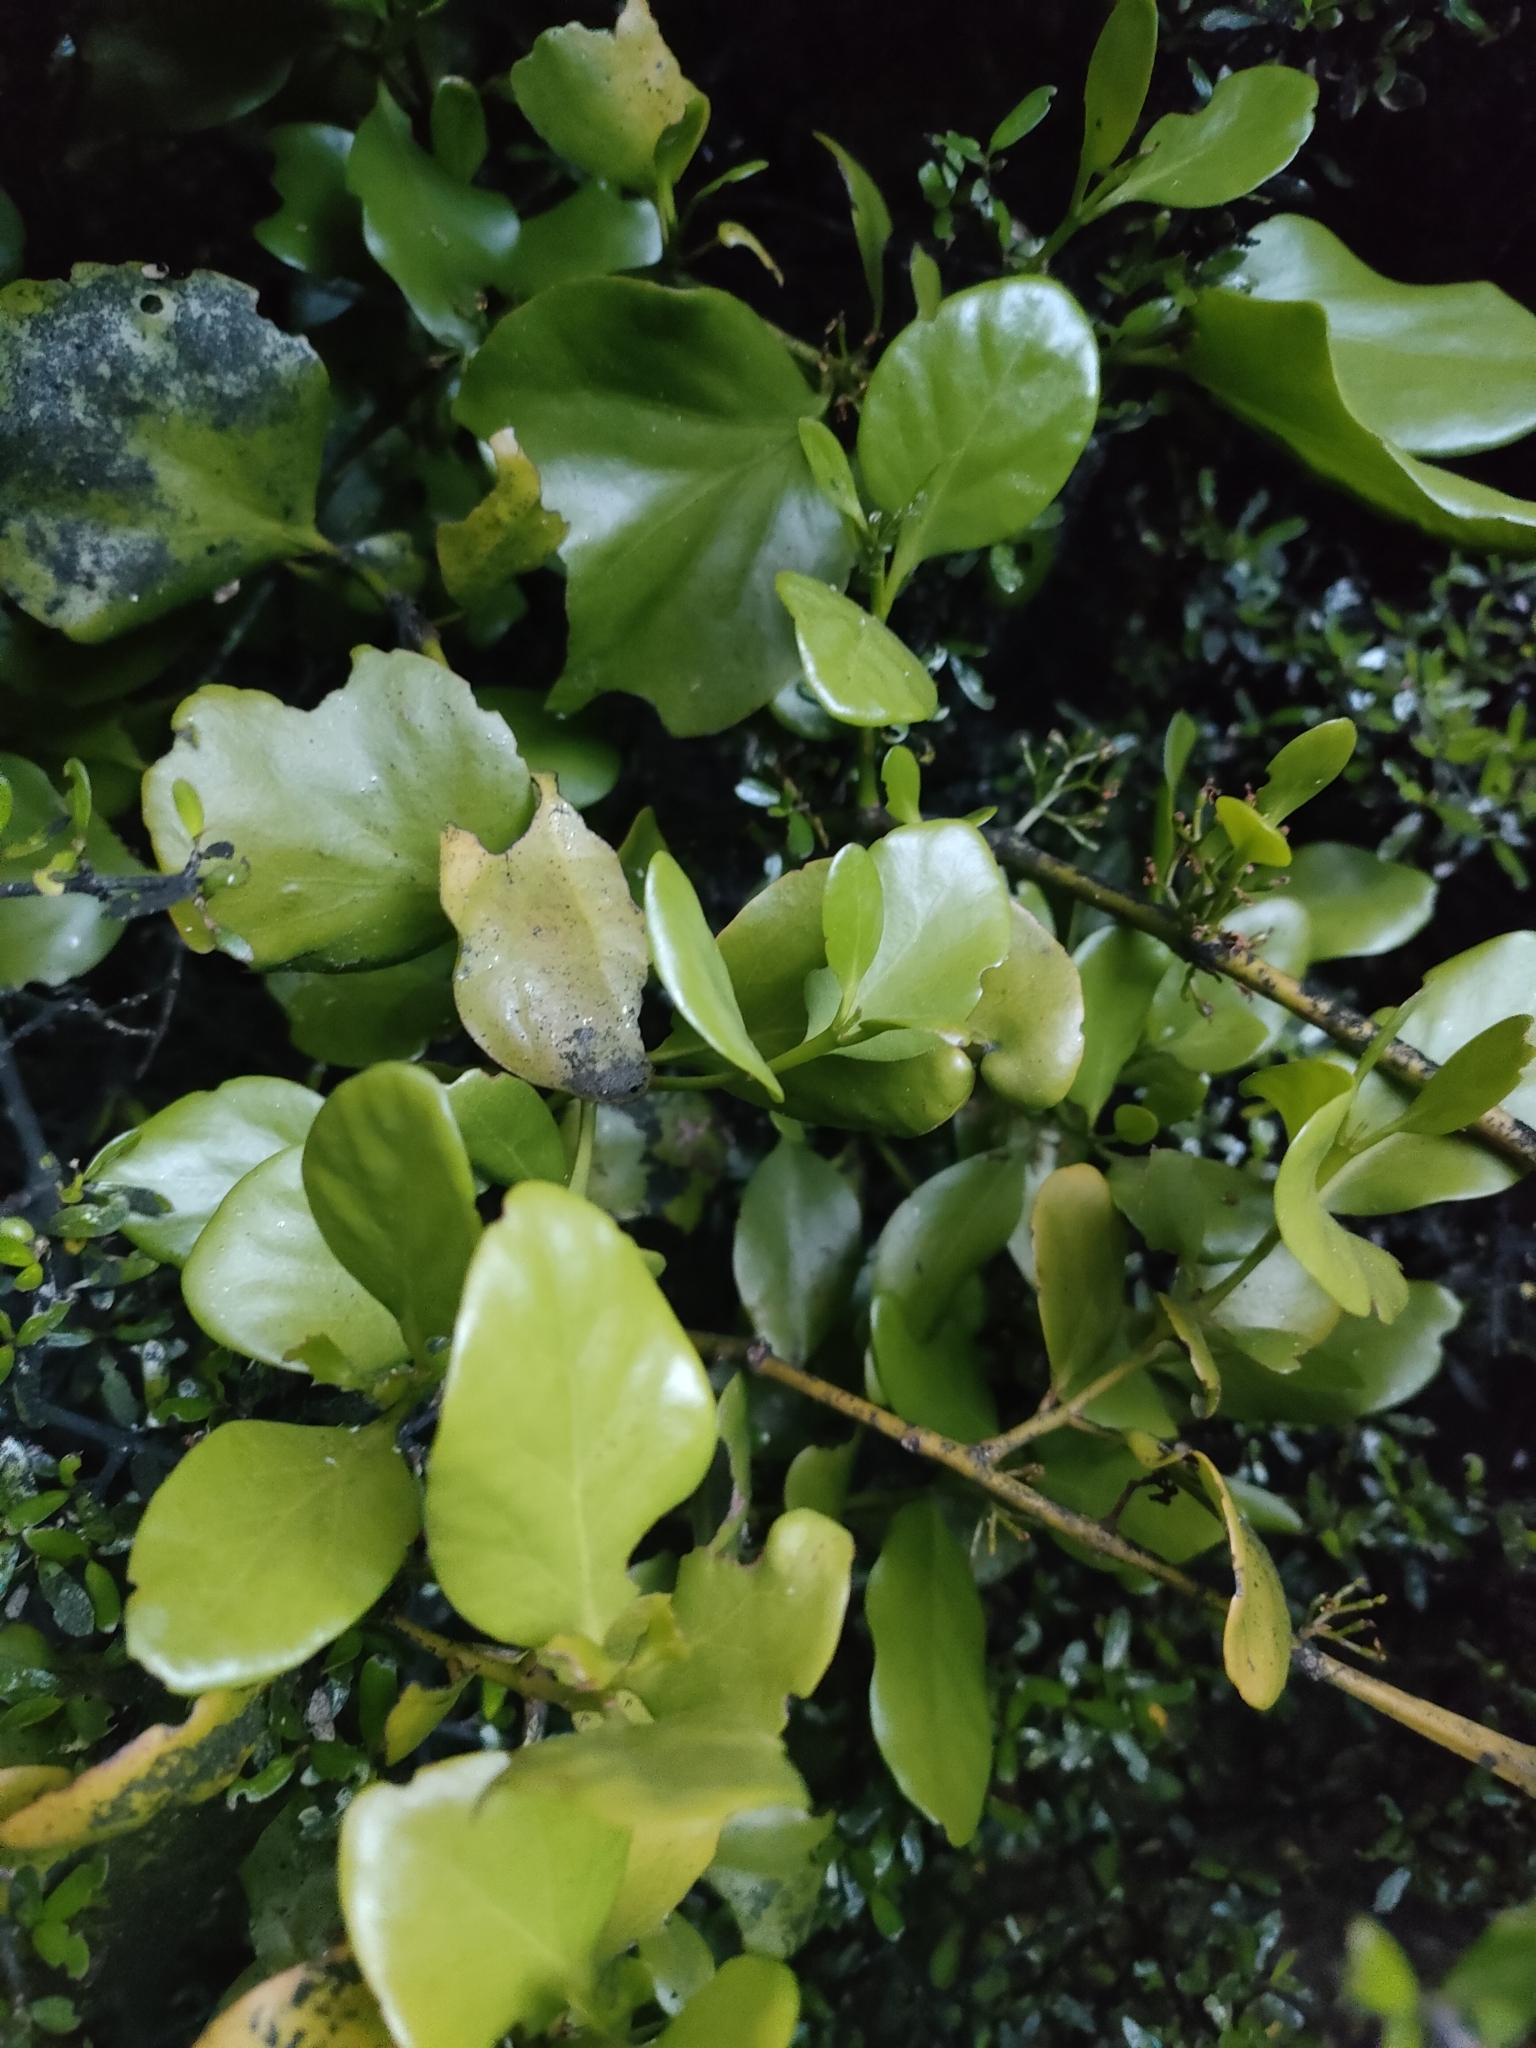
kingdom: Plantae
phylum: Tracheophyta
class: Magnoliopsida
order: Santalales
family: Loranthaceae
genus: Ileostylus
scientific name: Ileostylus micranthus
